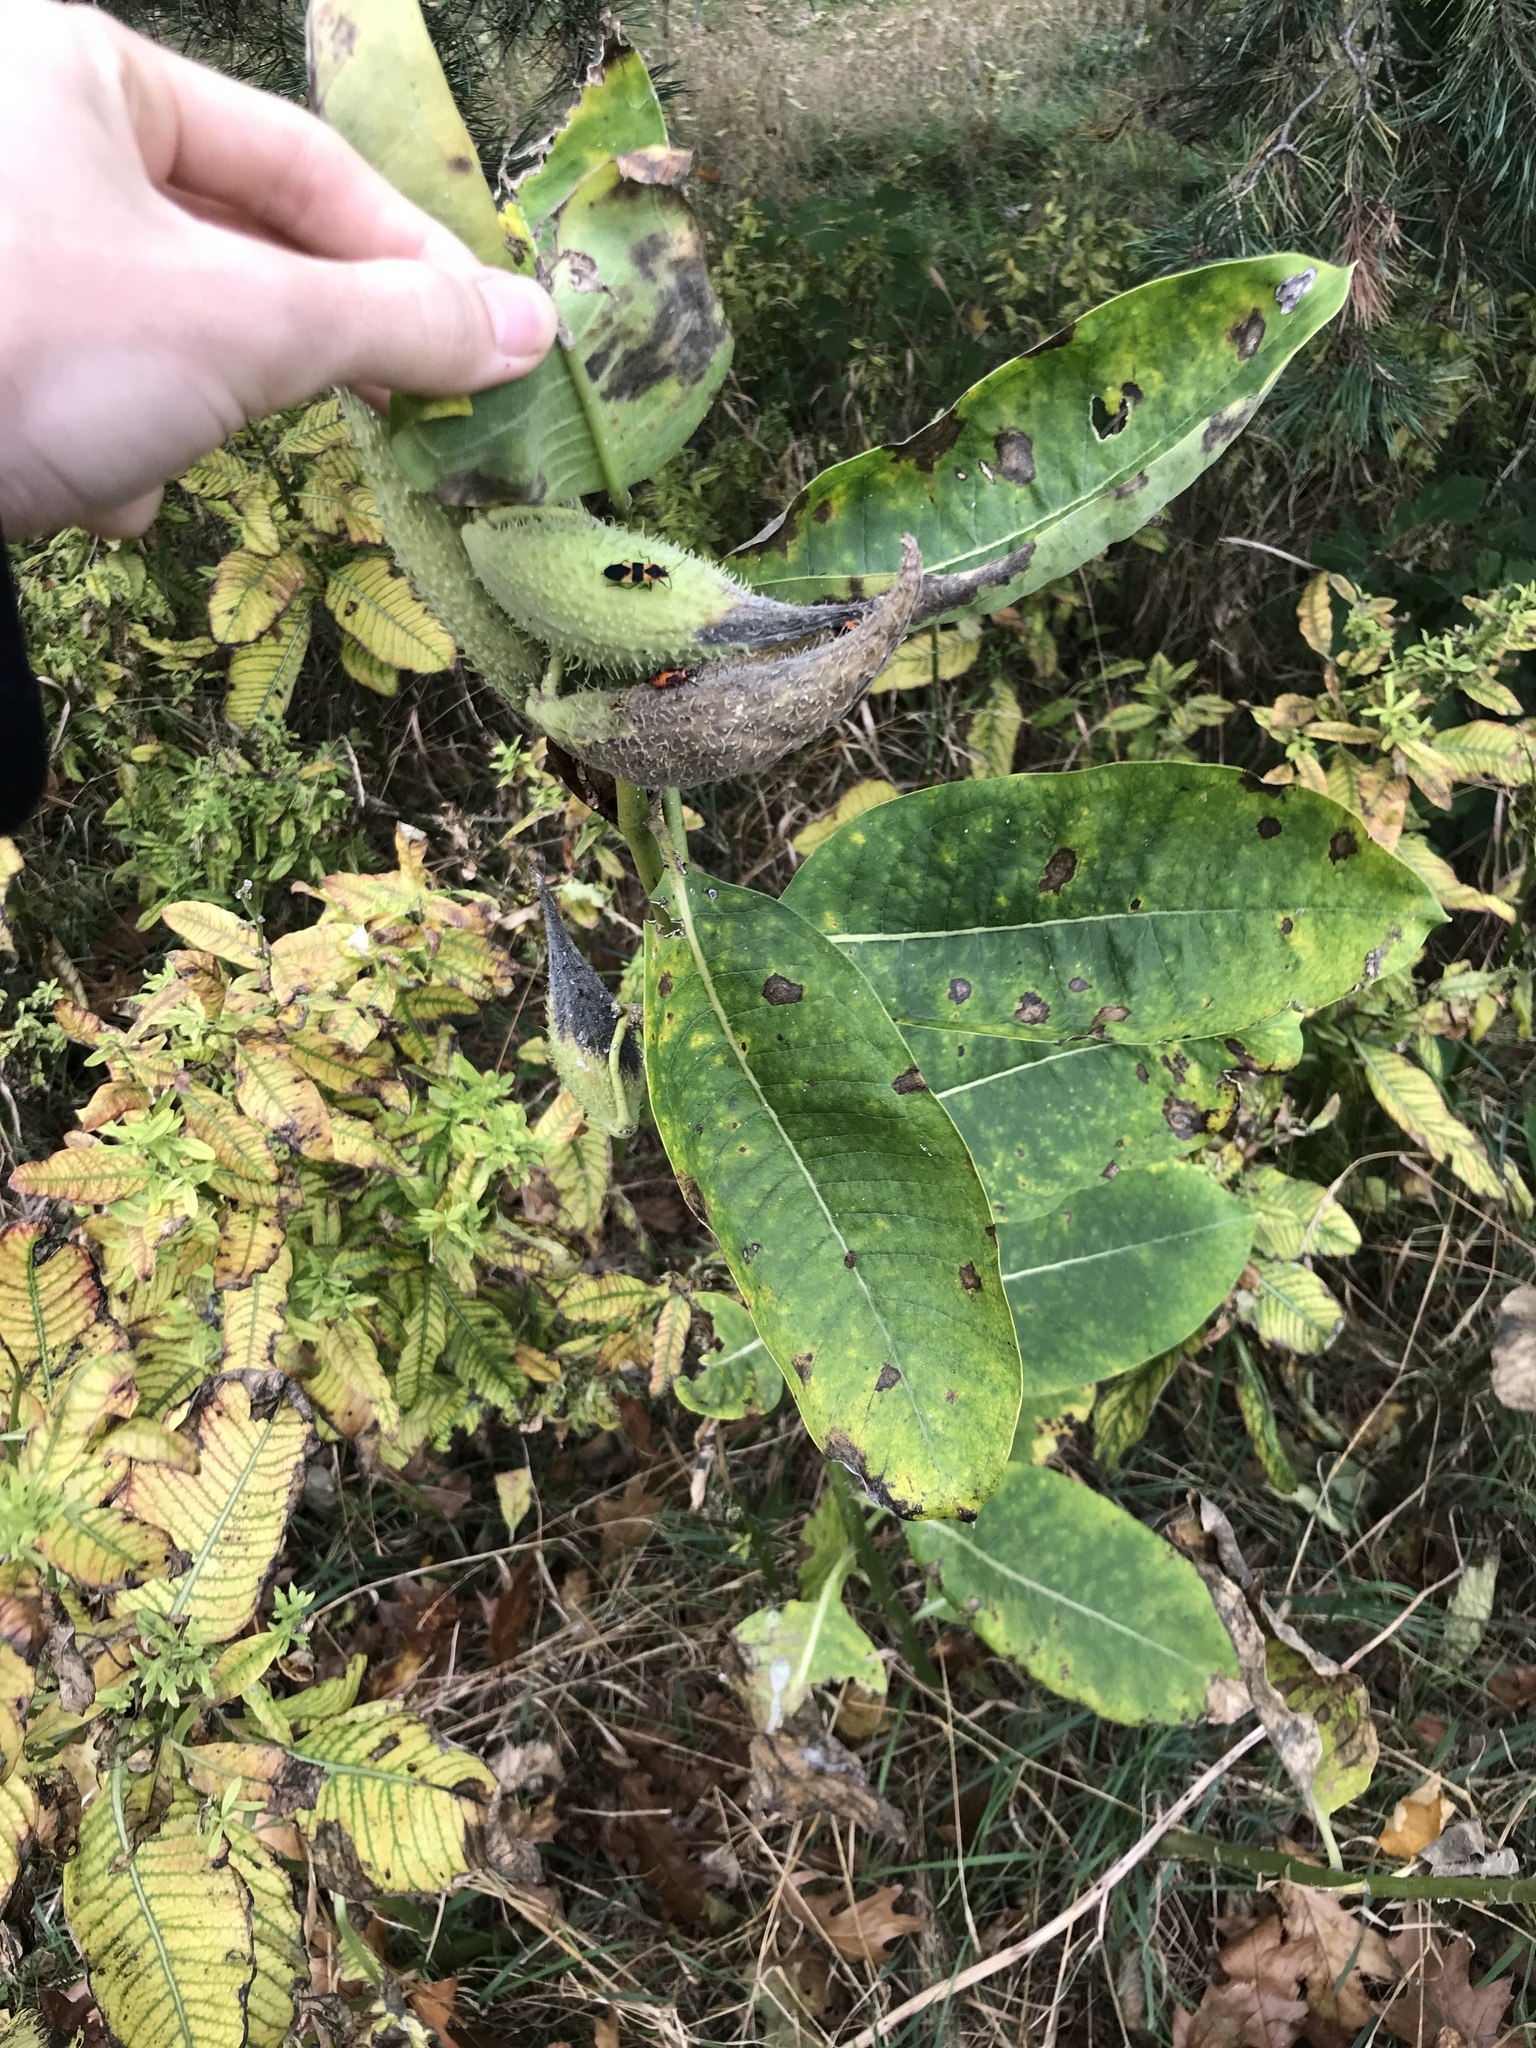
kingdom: Plantae
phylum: Tracheophyta
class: Magnoliopsida
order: Gentianales
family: Apocynaceae
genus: Asclepias
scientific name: Asclepias syriaca
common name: Common milkweed
